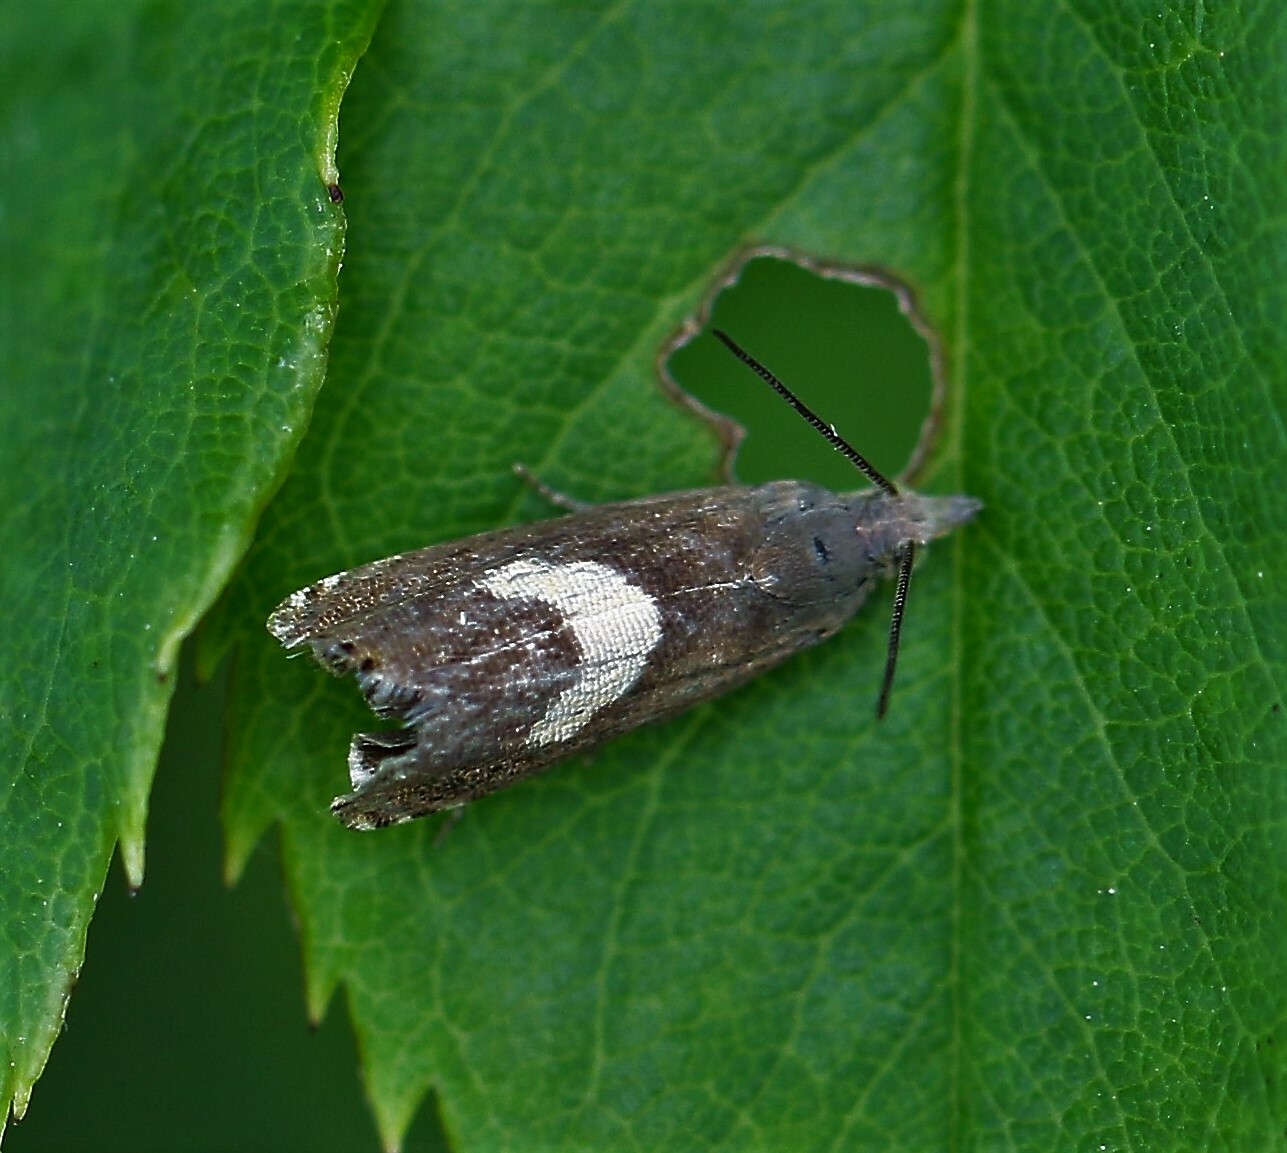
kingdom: Animalia
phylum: Arthropoda
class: Insecta
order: Lepidoptera
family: Tortricidae
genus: Dichrorampha
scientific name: Dichrorampha petiverella
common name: Common drill
